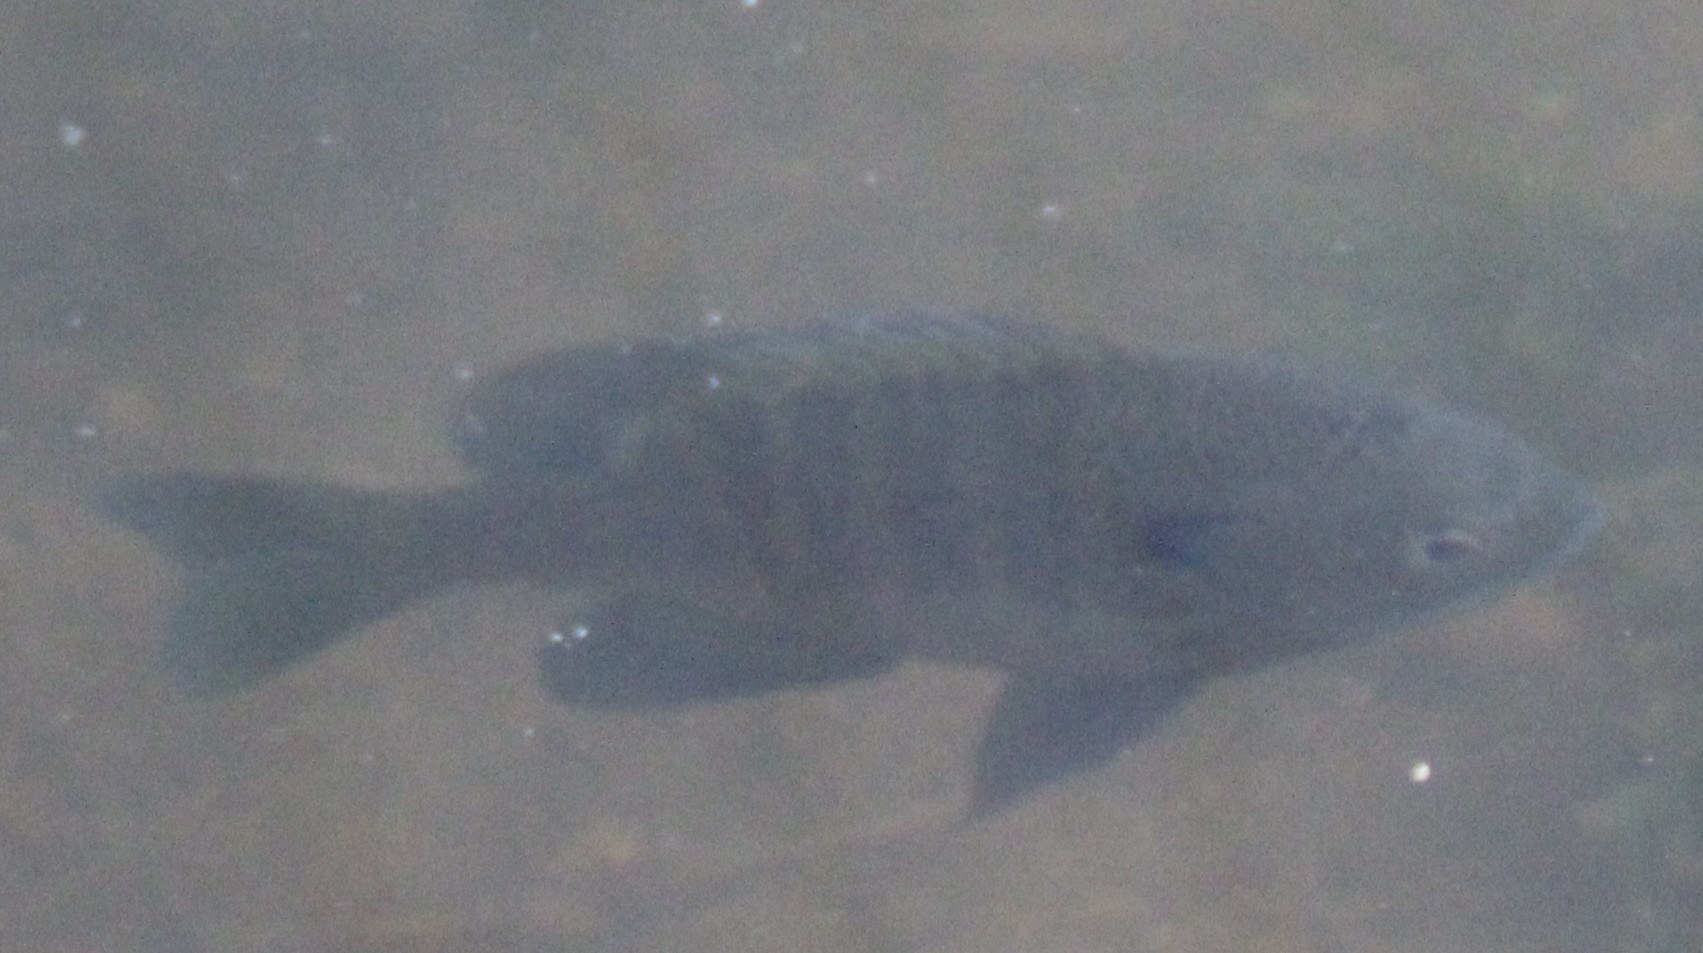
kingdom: Animalia
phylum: Chordata
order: Perciformes
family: Centrarchidae
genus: Lepomis
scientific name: Lepomis macrochirus
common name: Bluegill
